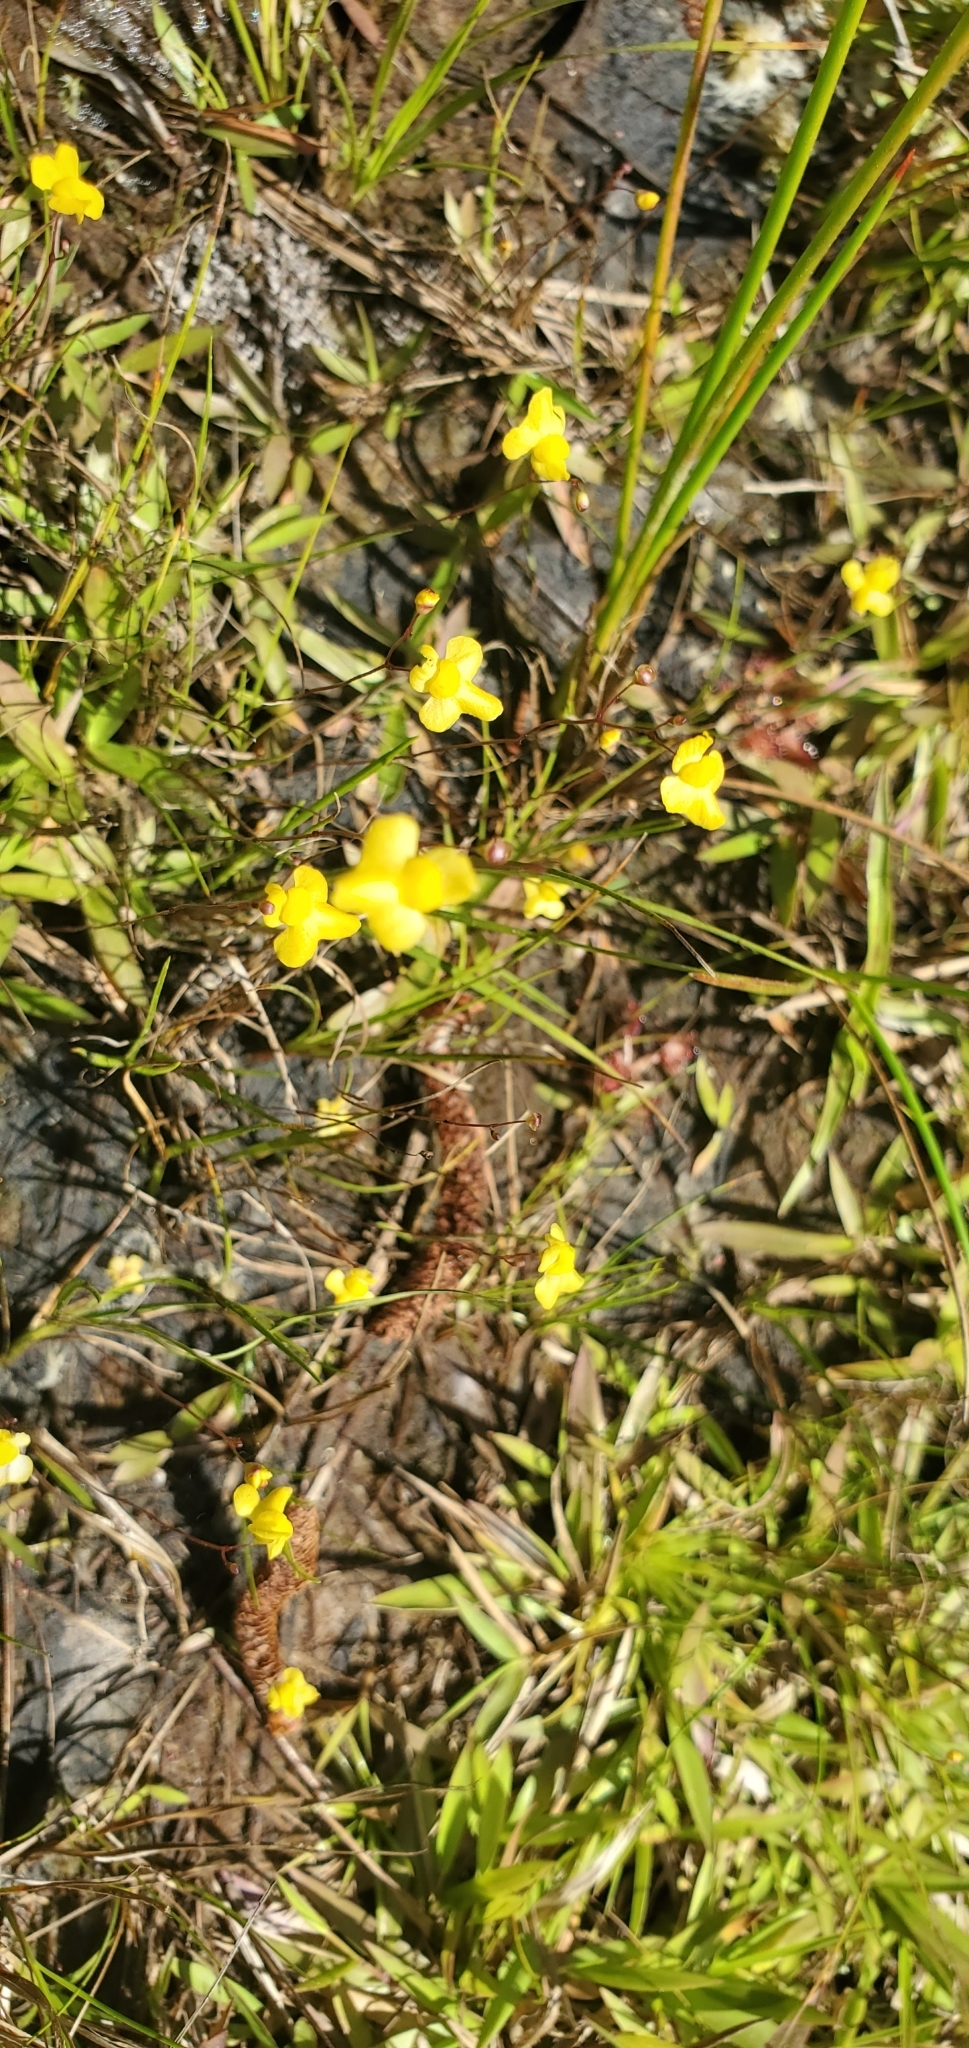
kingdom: Plantae
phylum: Tracheophyta
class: Magnoliopsida
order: Lamiales
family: Lentibulariaceae
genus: Utricularia
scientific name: Utricularia subulata
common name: Tiny bladderwort
